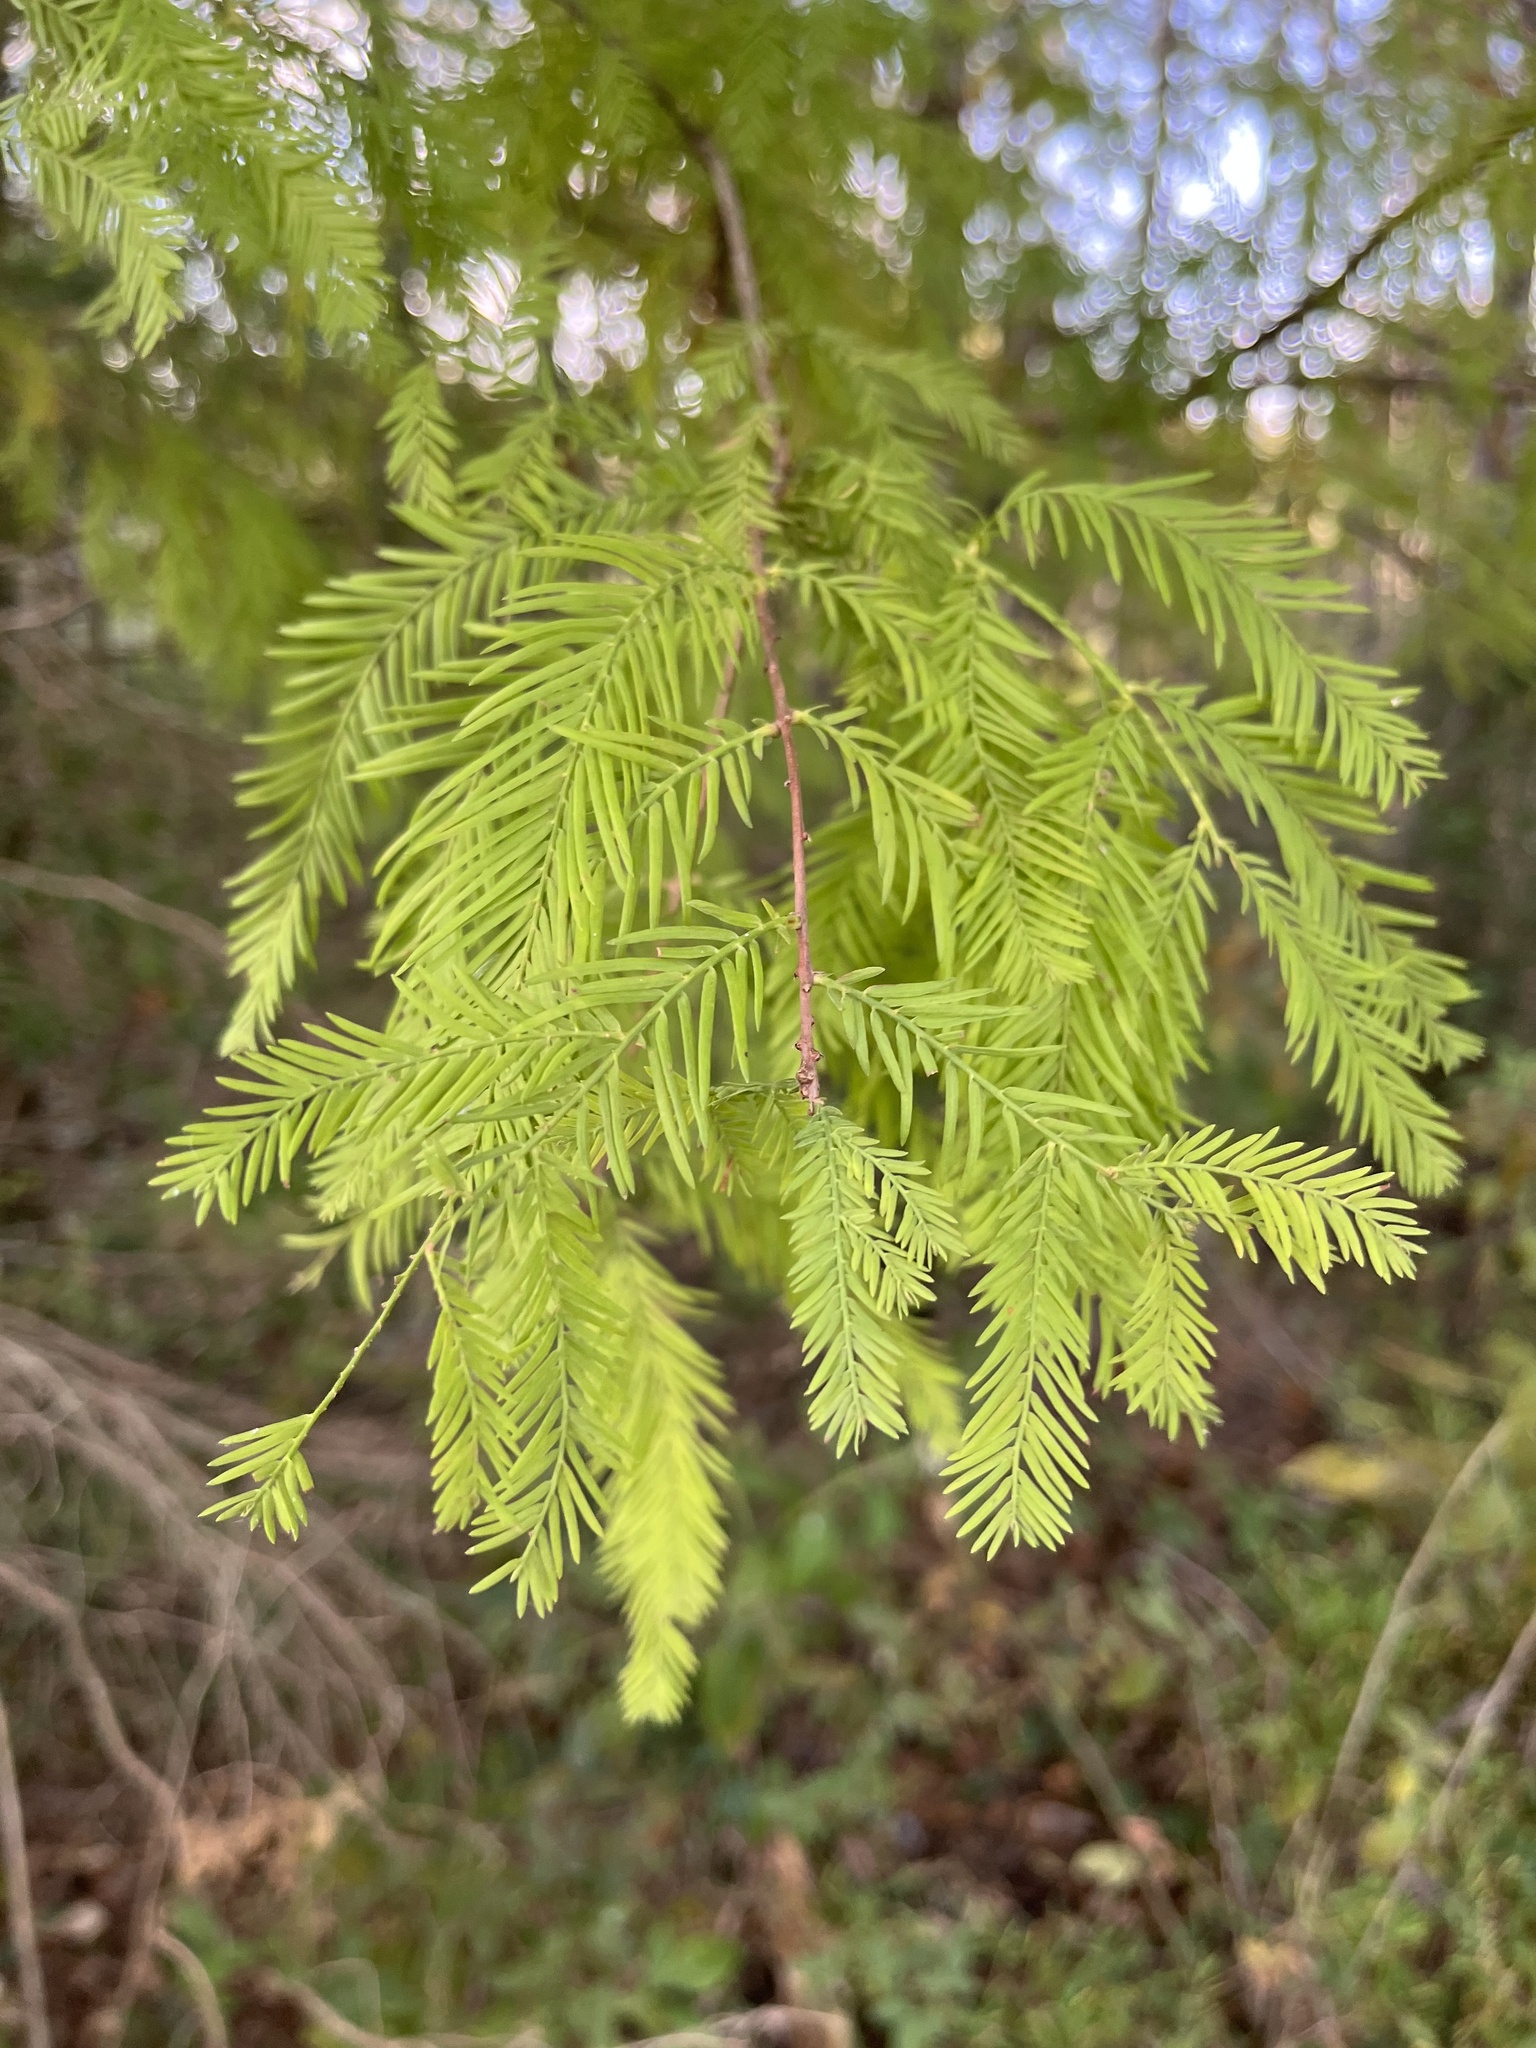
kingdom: Plantae
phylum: Tracheophyta
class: Pinopsida
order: Pinales
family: Cupressaceae
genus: Taxodium
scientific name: Taxodium distichum
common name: Bald cypress
